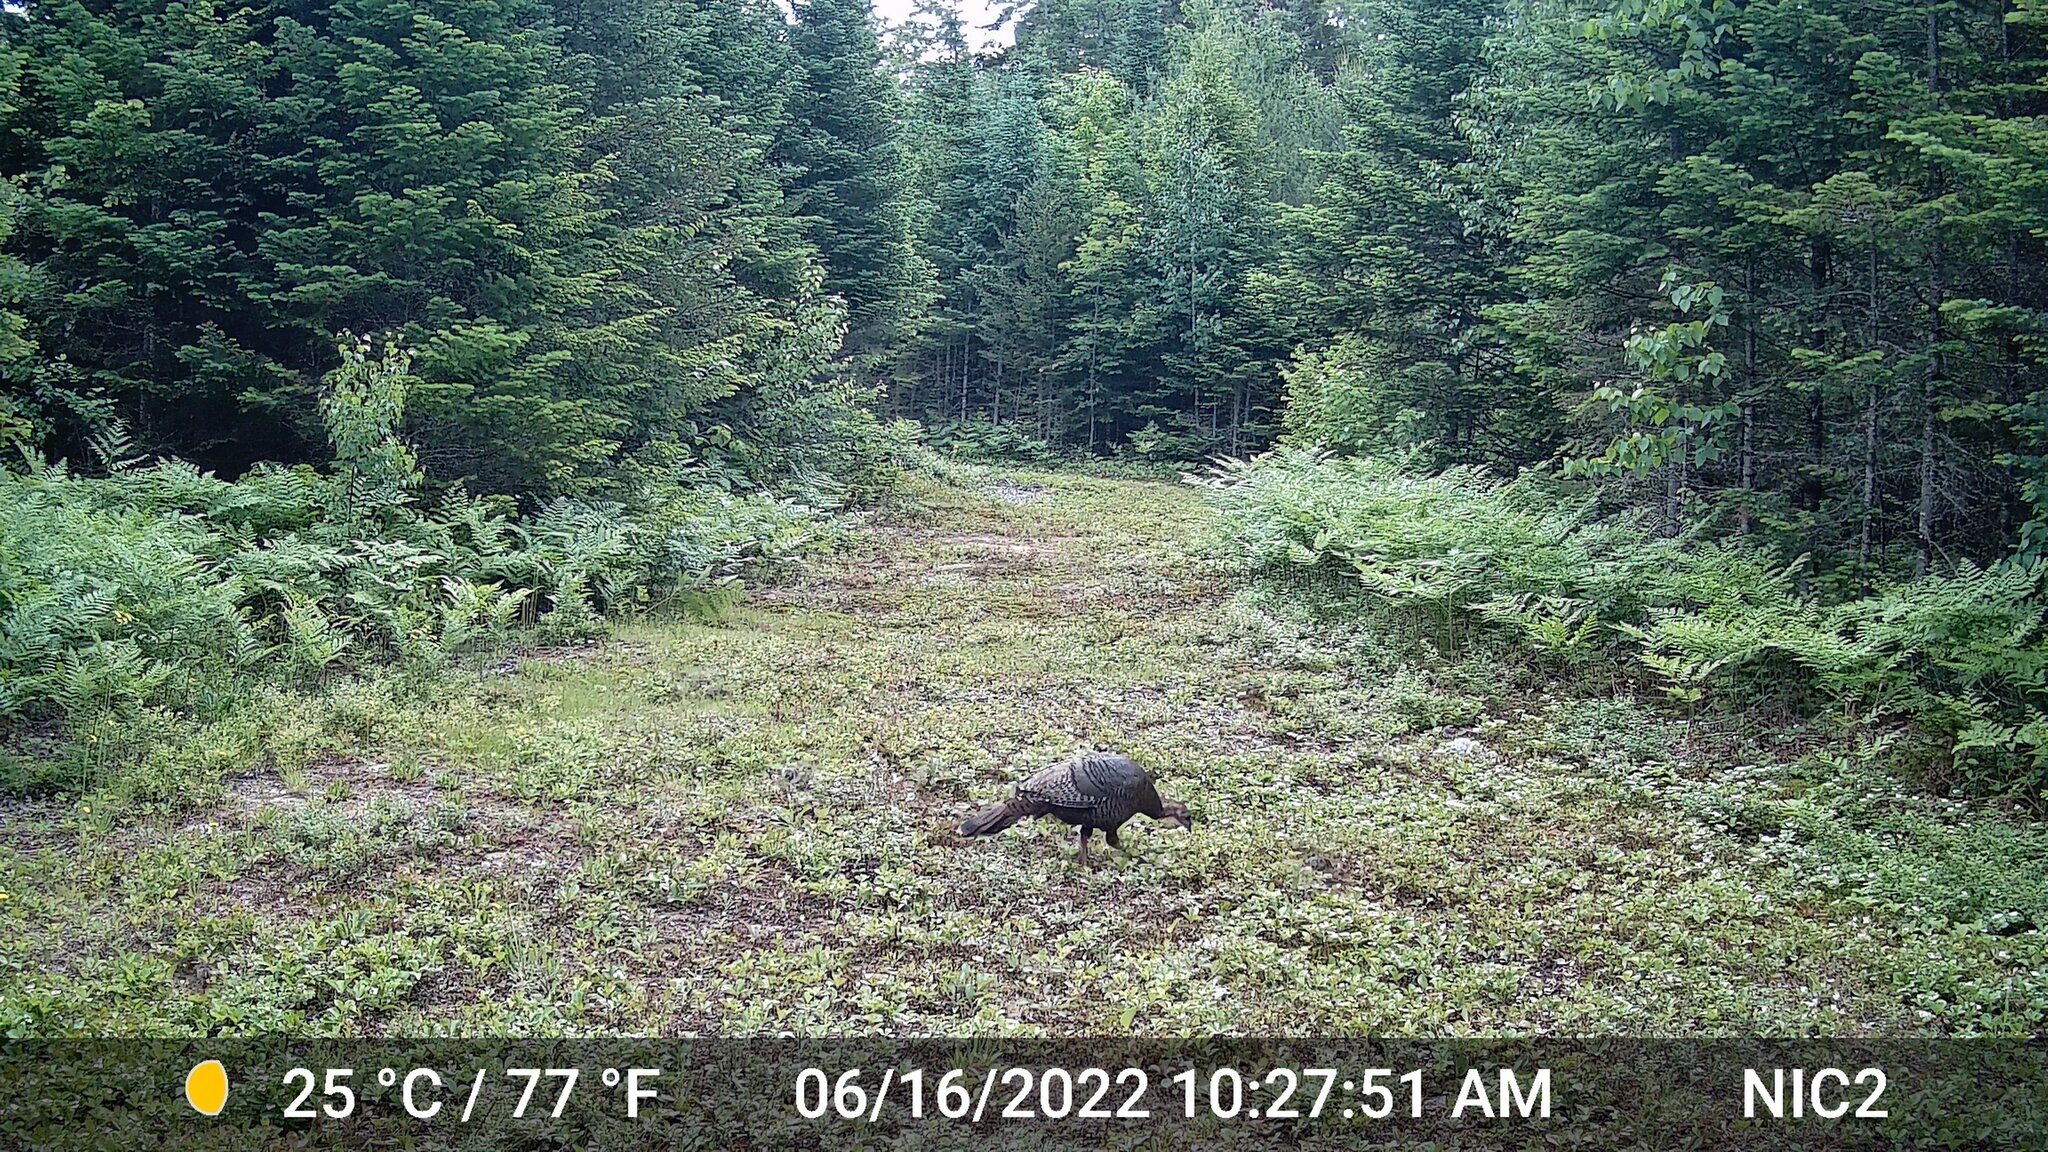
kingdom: Animalia
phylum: Chordata
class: Aves
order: Galliformes
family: Phasianidae
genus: Meleagris
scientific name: Meleagris gallopavo
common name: Wild turkey
